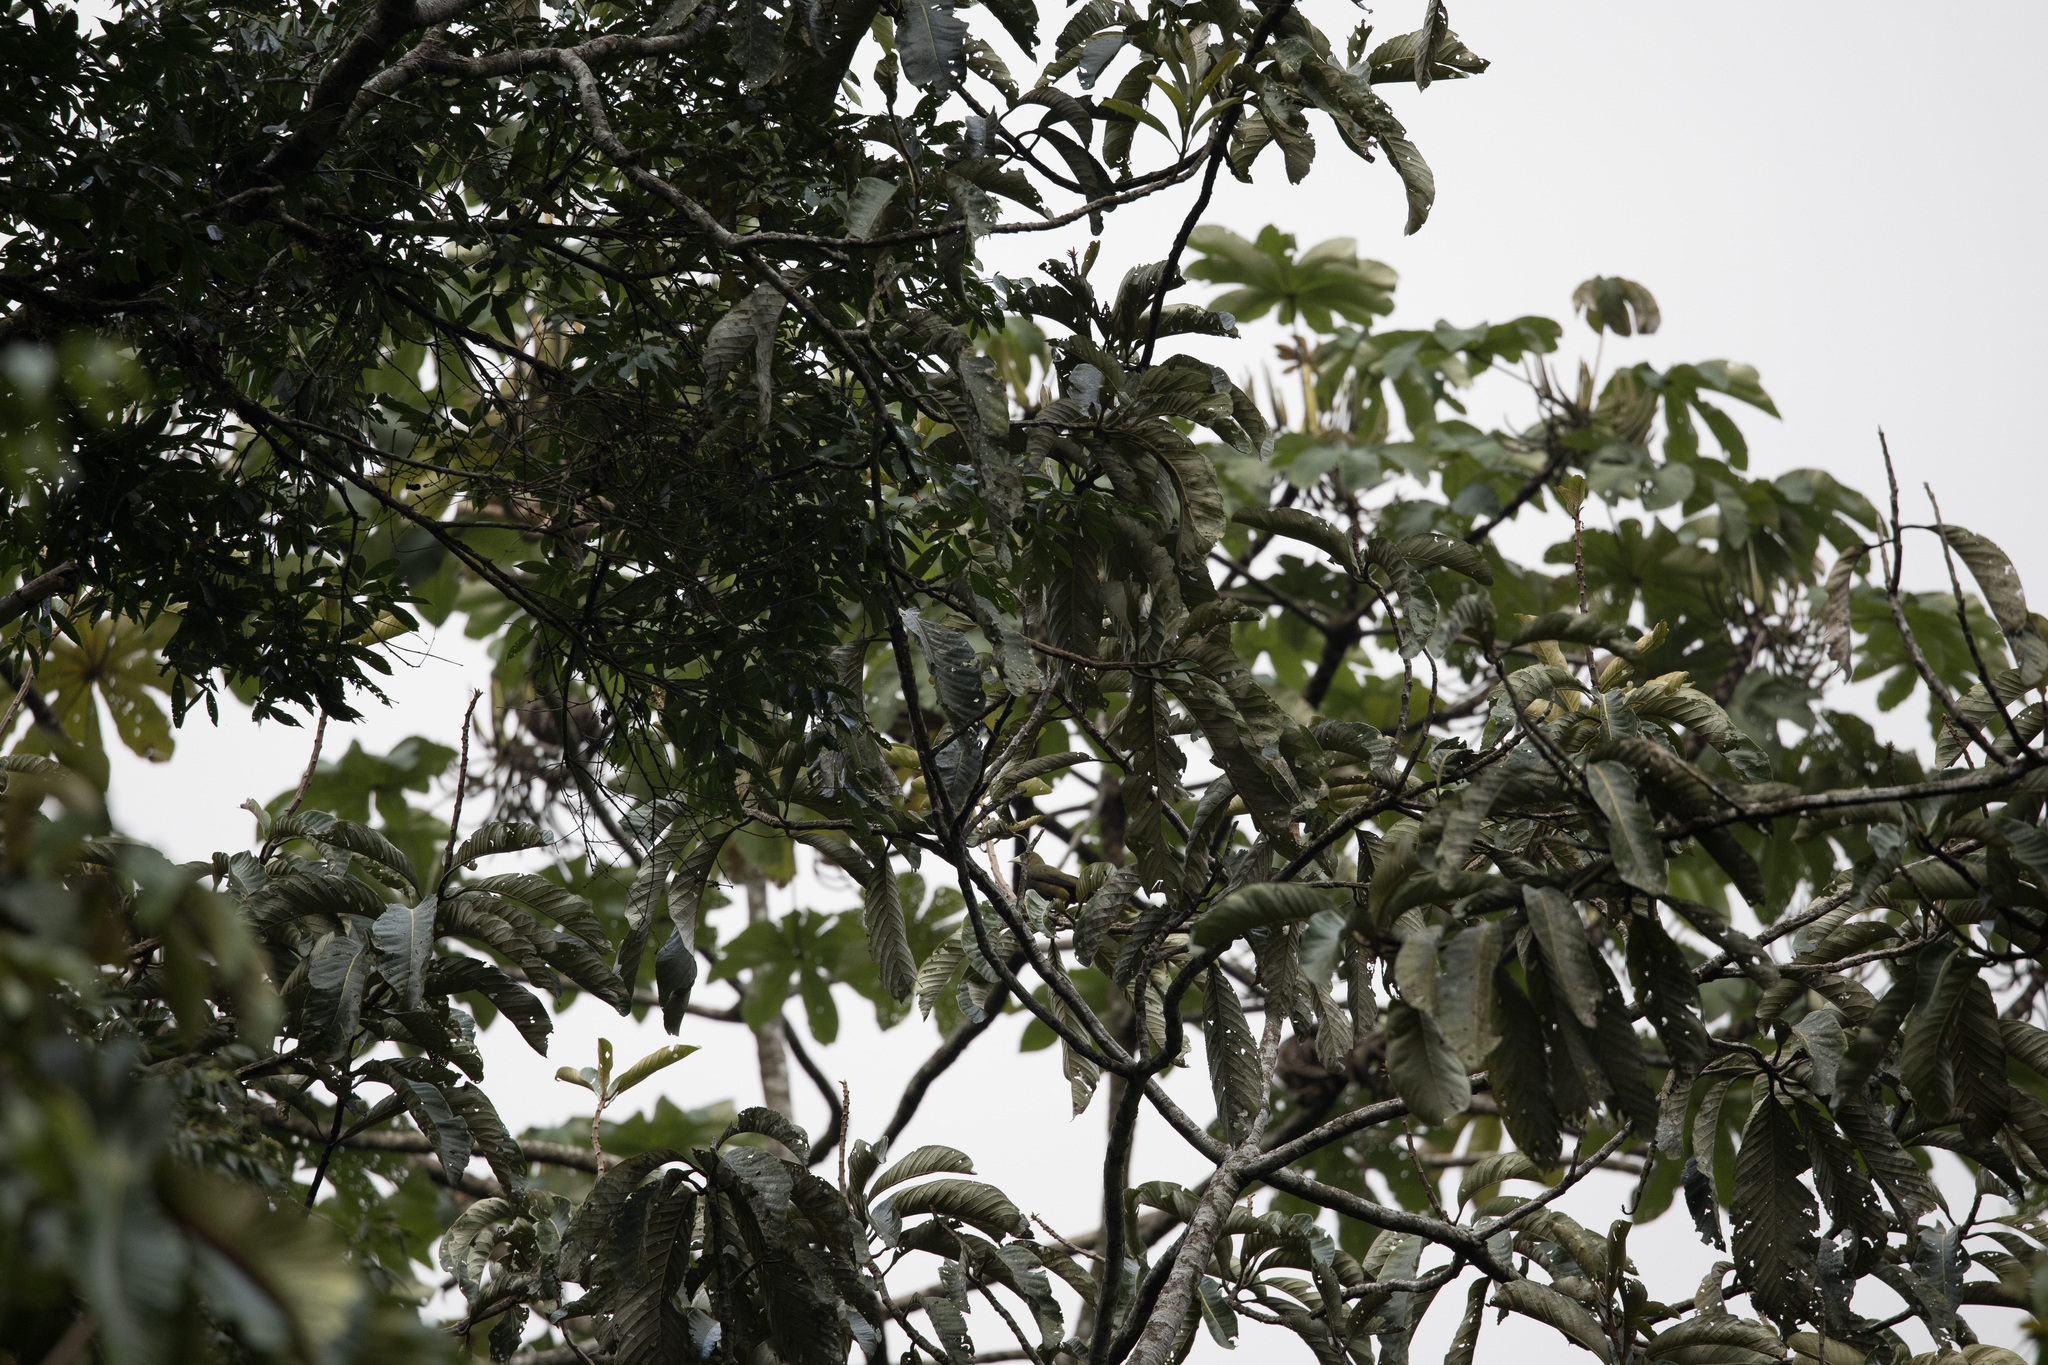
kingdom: Animalia
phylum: Chordata
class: Aves
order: Passeriformes
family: Icteridae
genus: Psarocolius
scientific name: Psarocolius atrovirens
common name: Dusky-green oropendola
